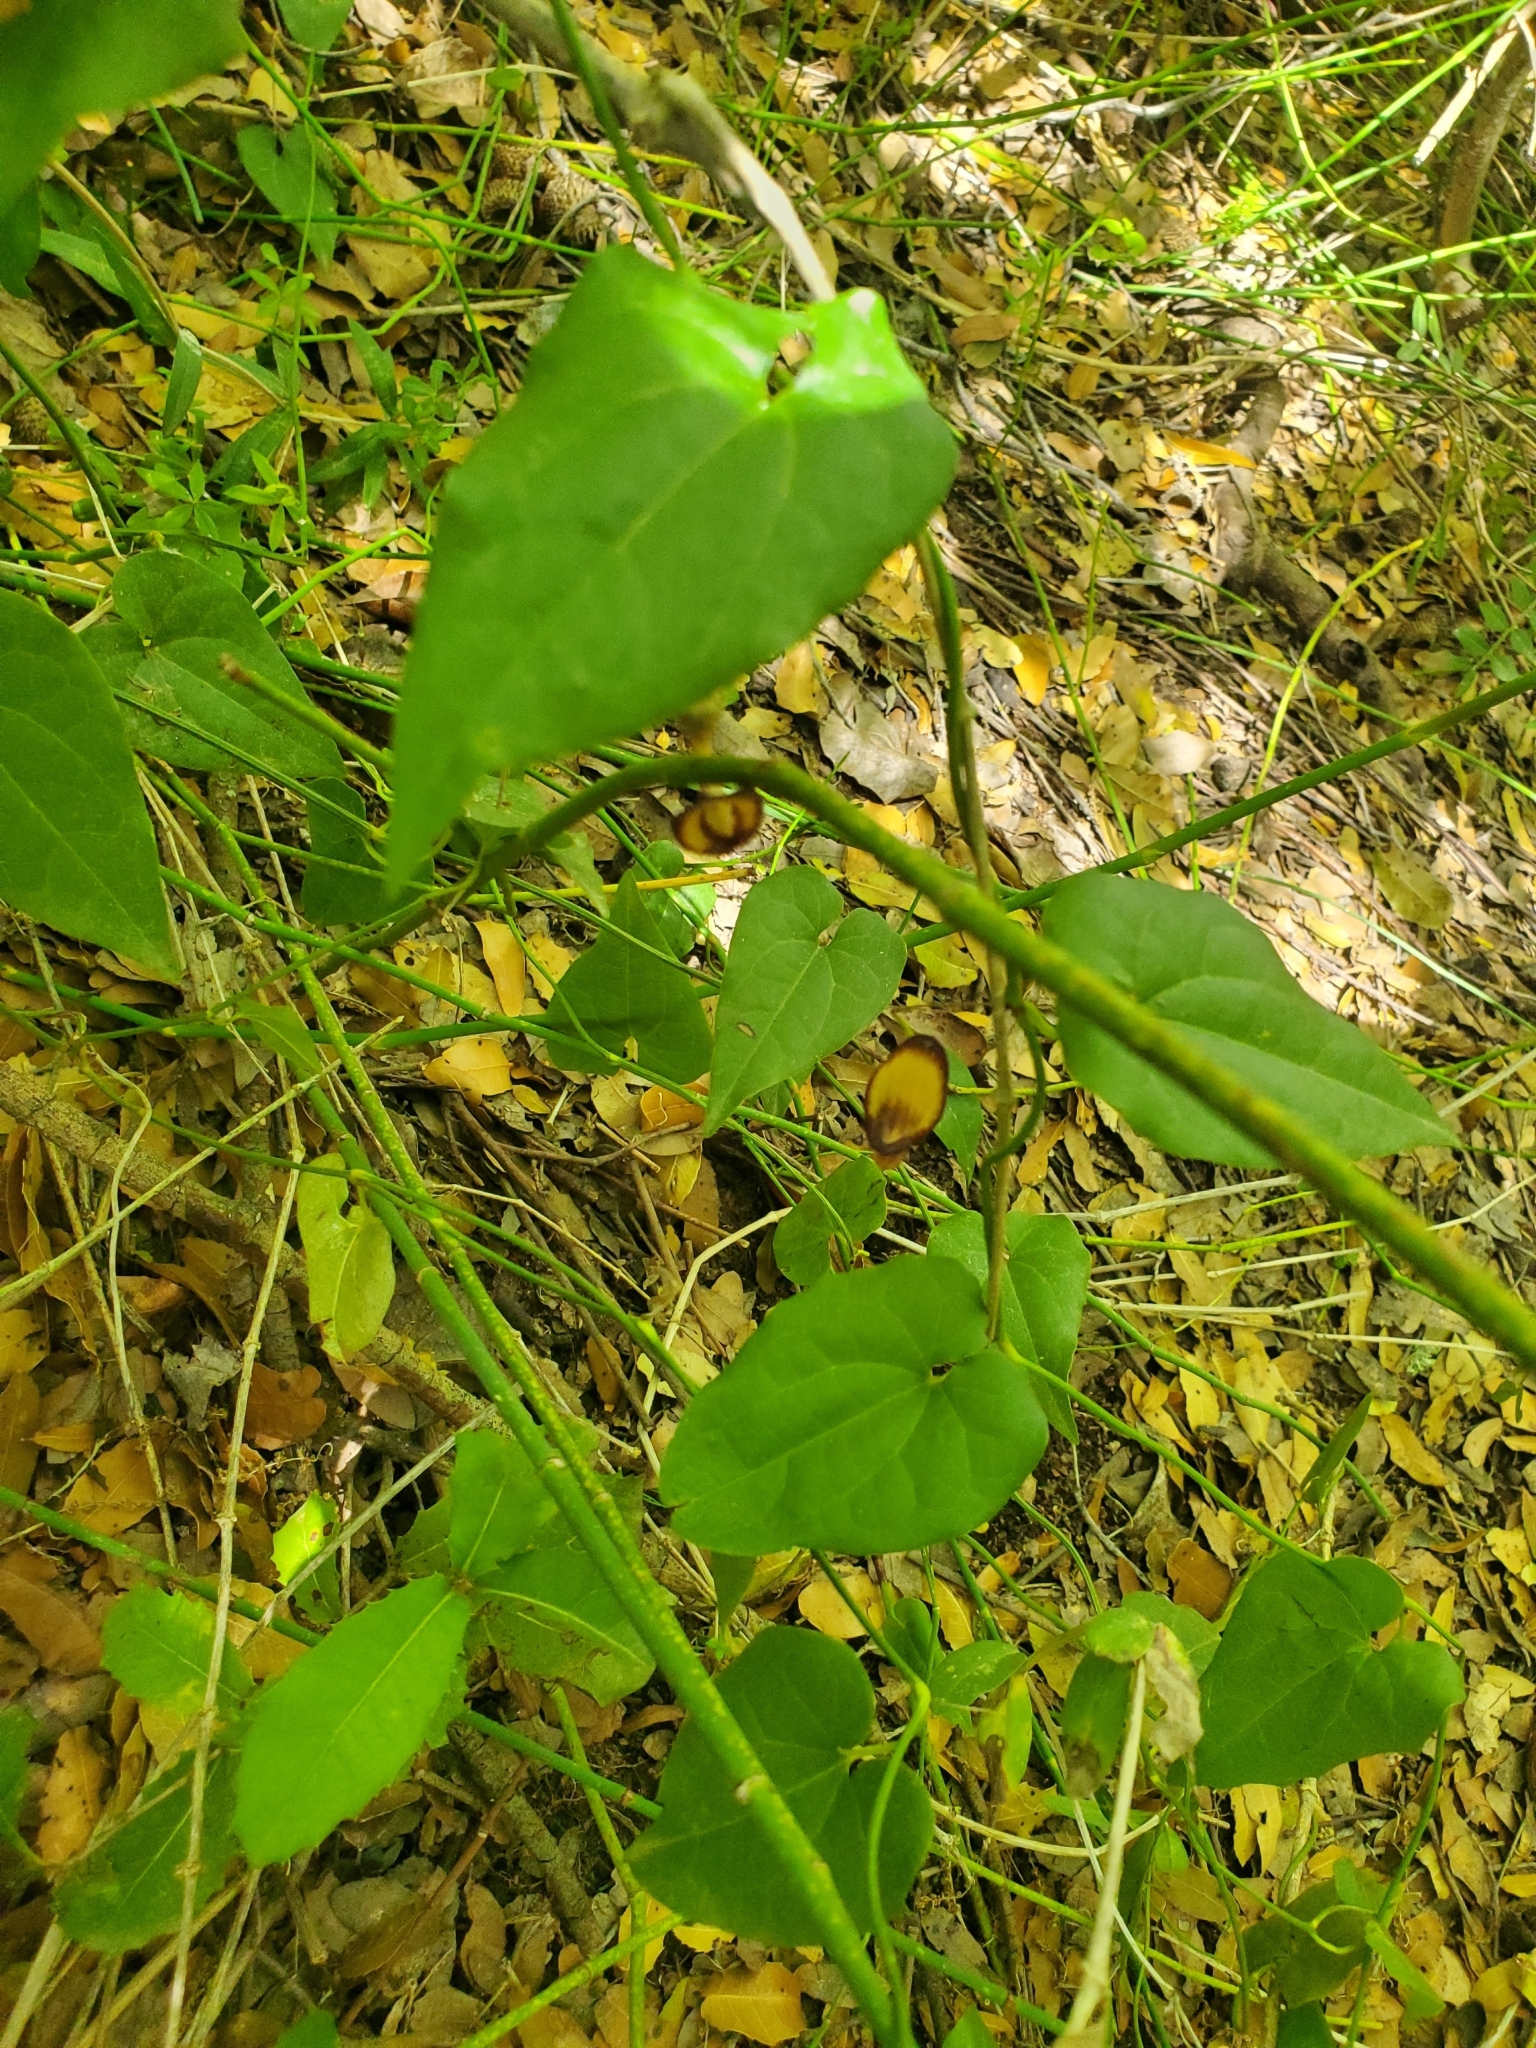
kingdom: Plantae
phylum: Tracheophyta
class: Magnoliopsida
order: Piperales
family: Aristolochiaceae
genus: Aristolochia
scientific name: Aristolochia sempervirens
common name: Long birthwort
